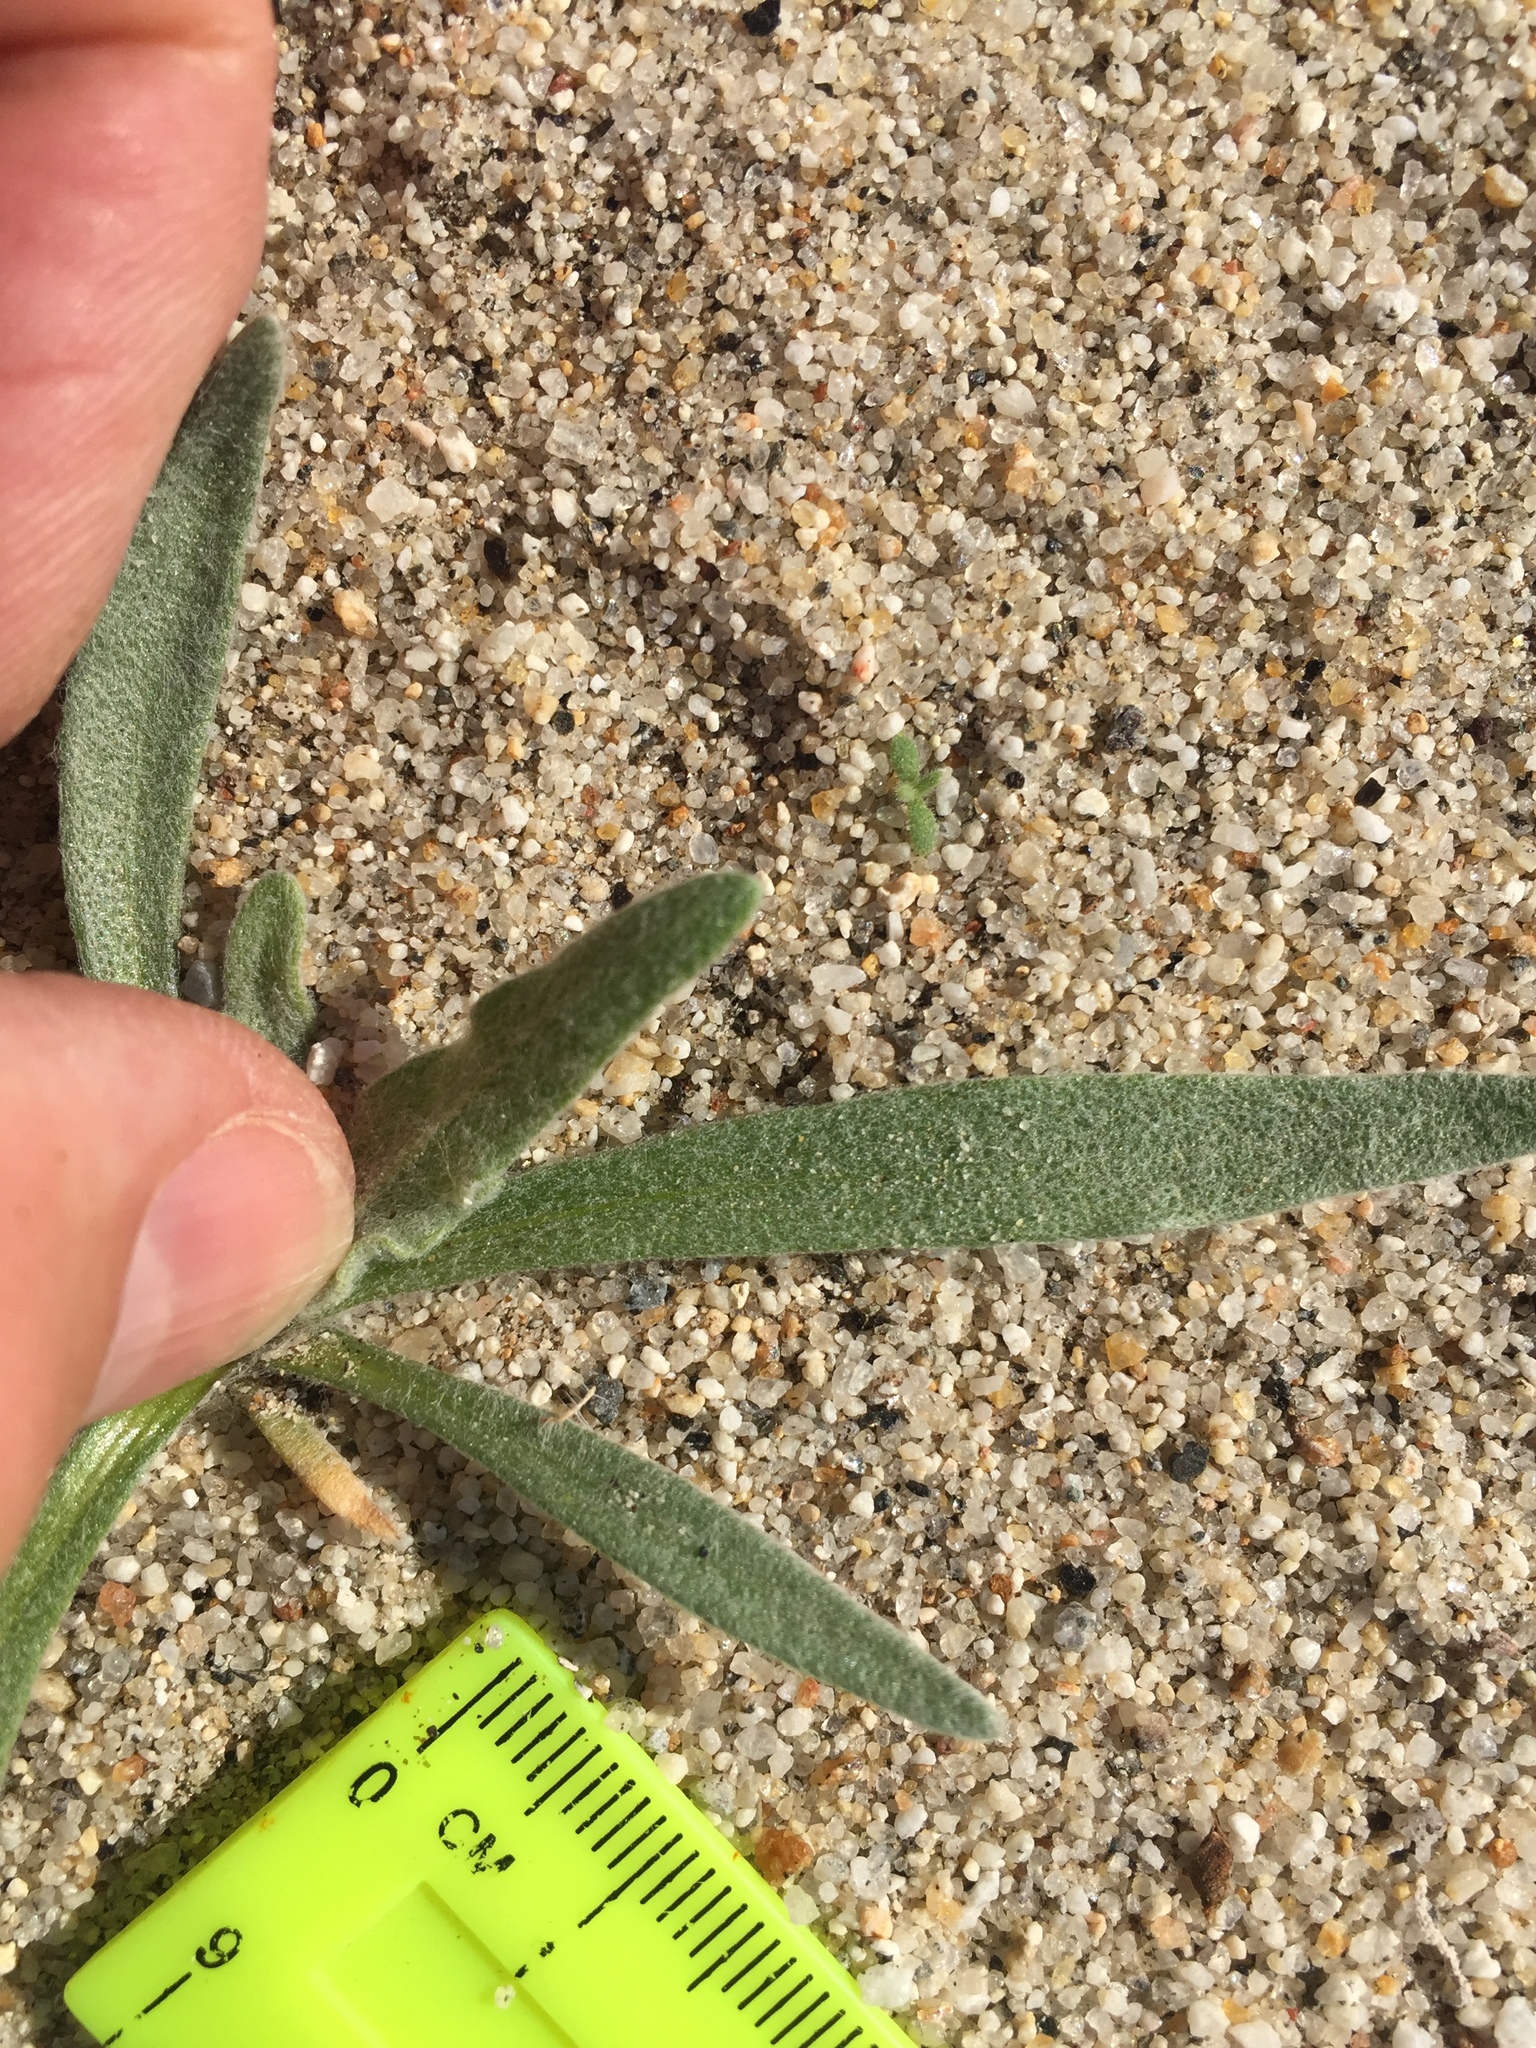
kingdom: Plantae
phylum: Tracheophyta
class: Magnoliopsida
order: Asterales
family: Asteraceae
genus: Baileya
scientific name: Baileya pauciradiata
